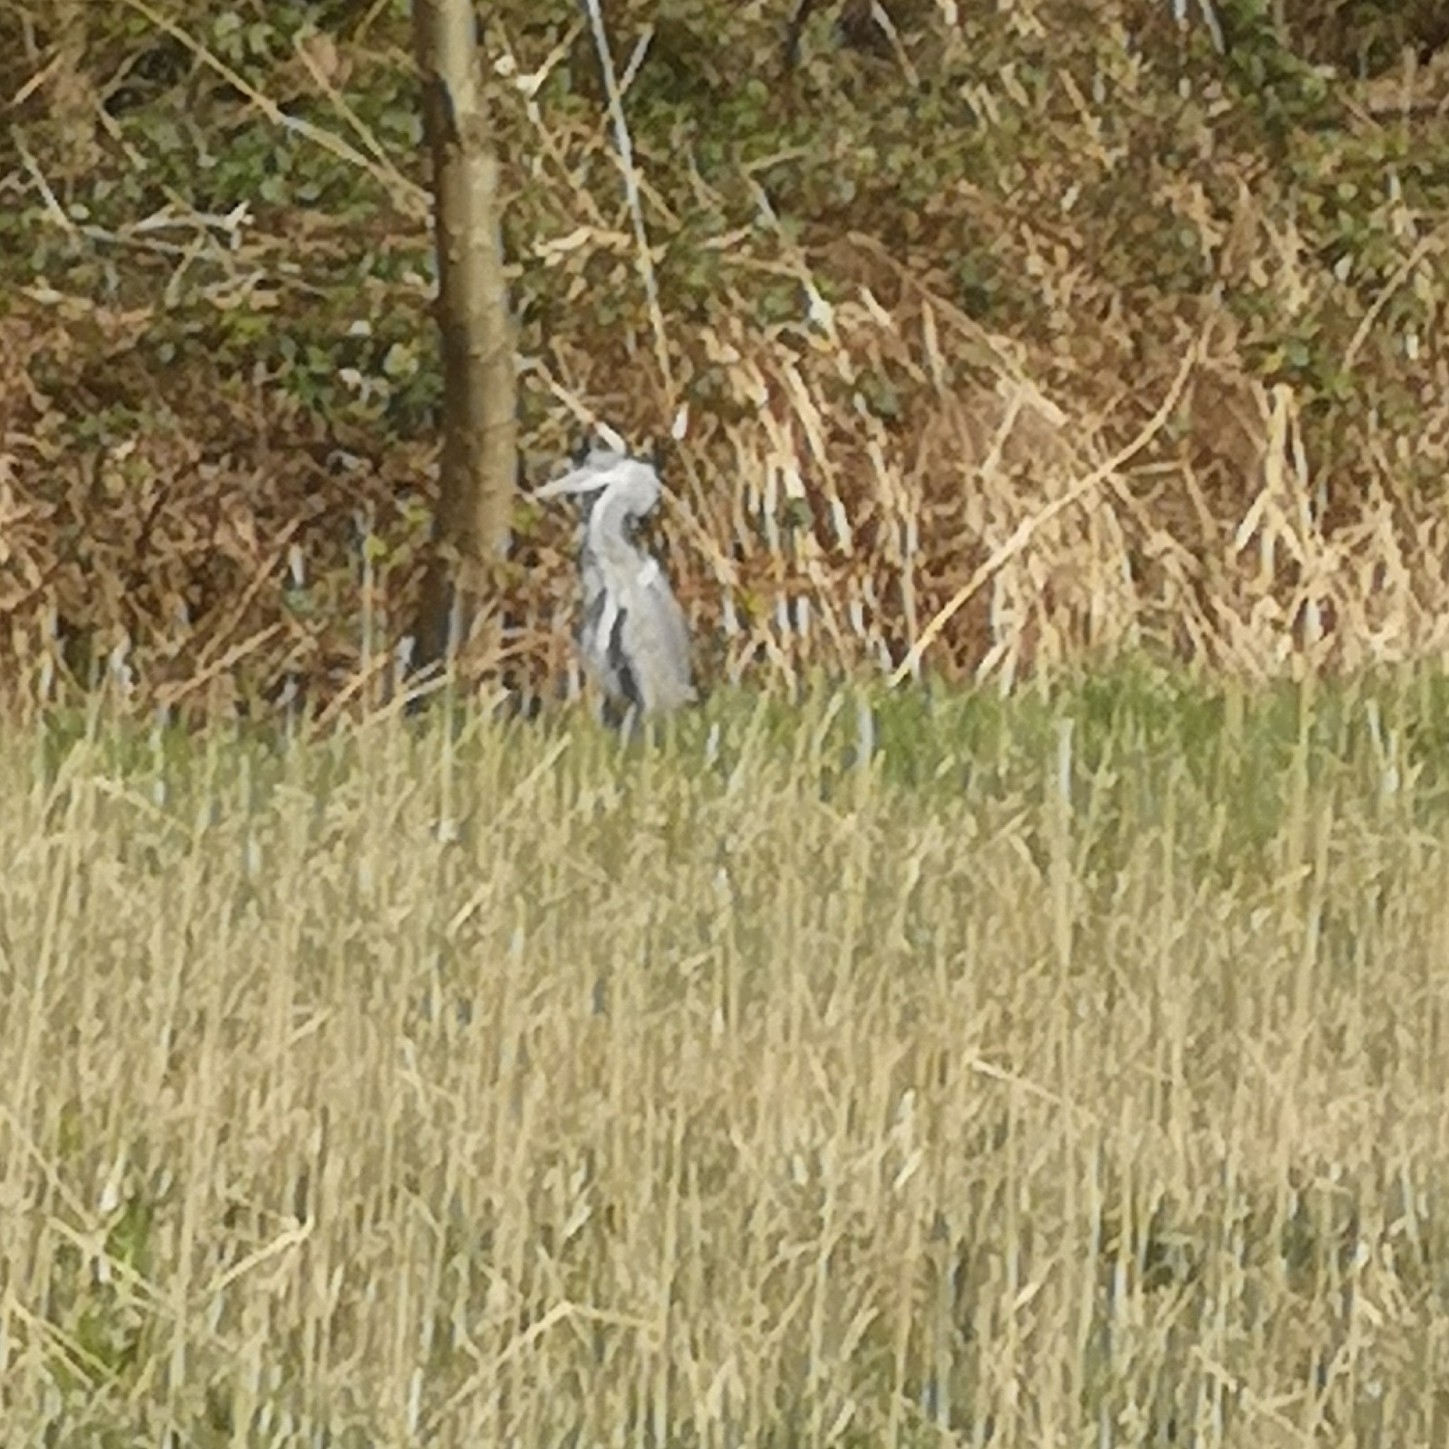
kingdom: Animalia
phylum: Chordata
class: Aves
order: Pelecaniformes
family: Ardeidae
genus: Ardea
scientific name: Ardea cinerea
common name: Grey heron
